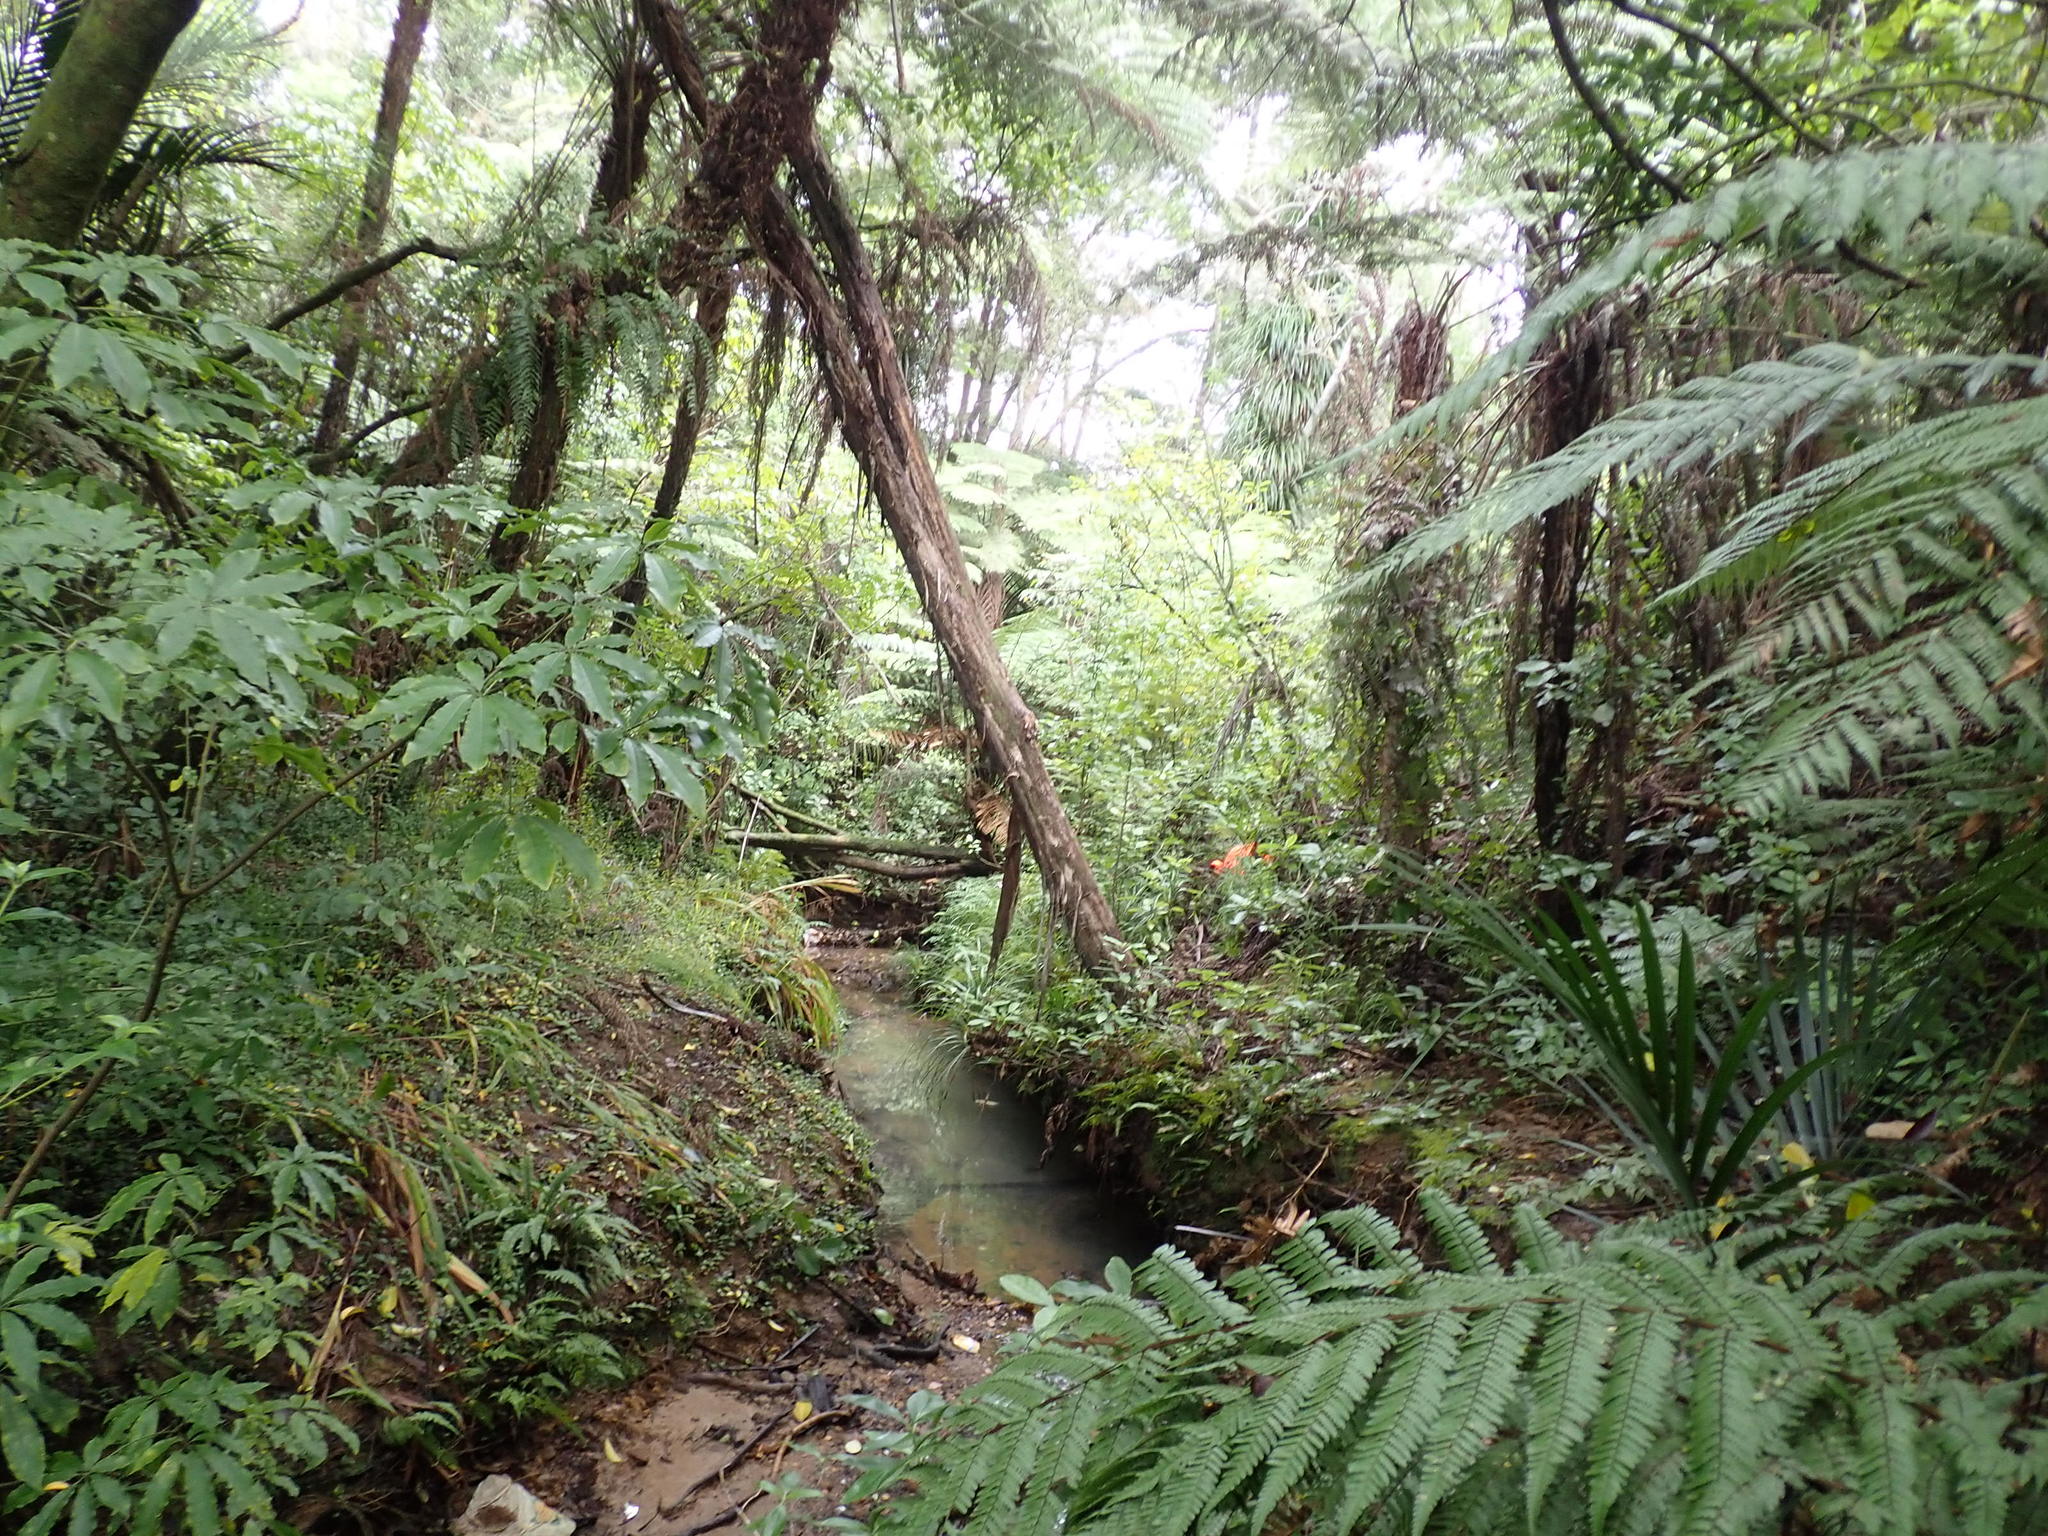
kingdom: Plantae
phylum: Tracheophyta
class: Magnoliopsida
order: Apiales
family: Araliaceae
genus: Schefflera
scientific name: Schefflera digitata
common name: Pate
